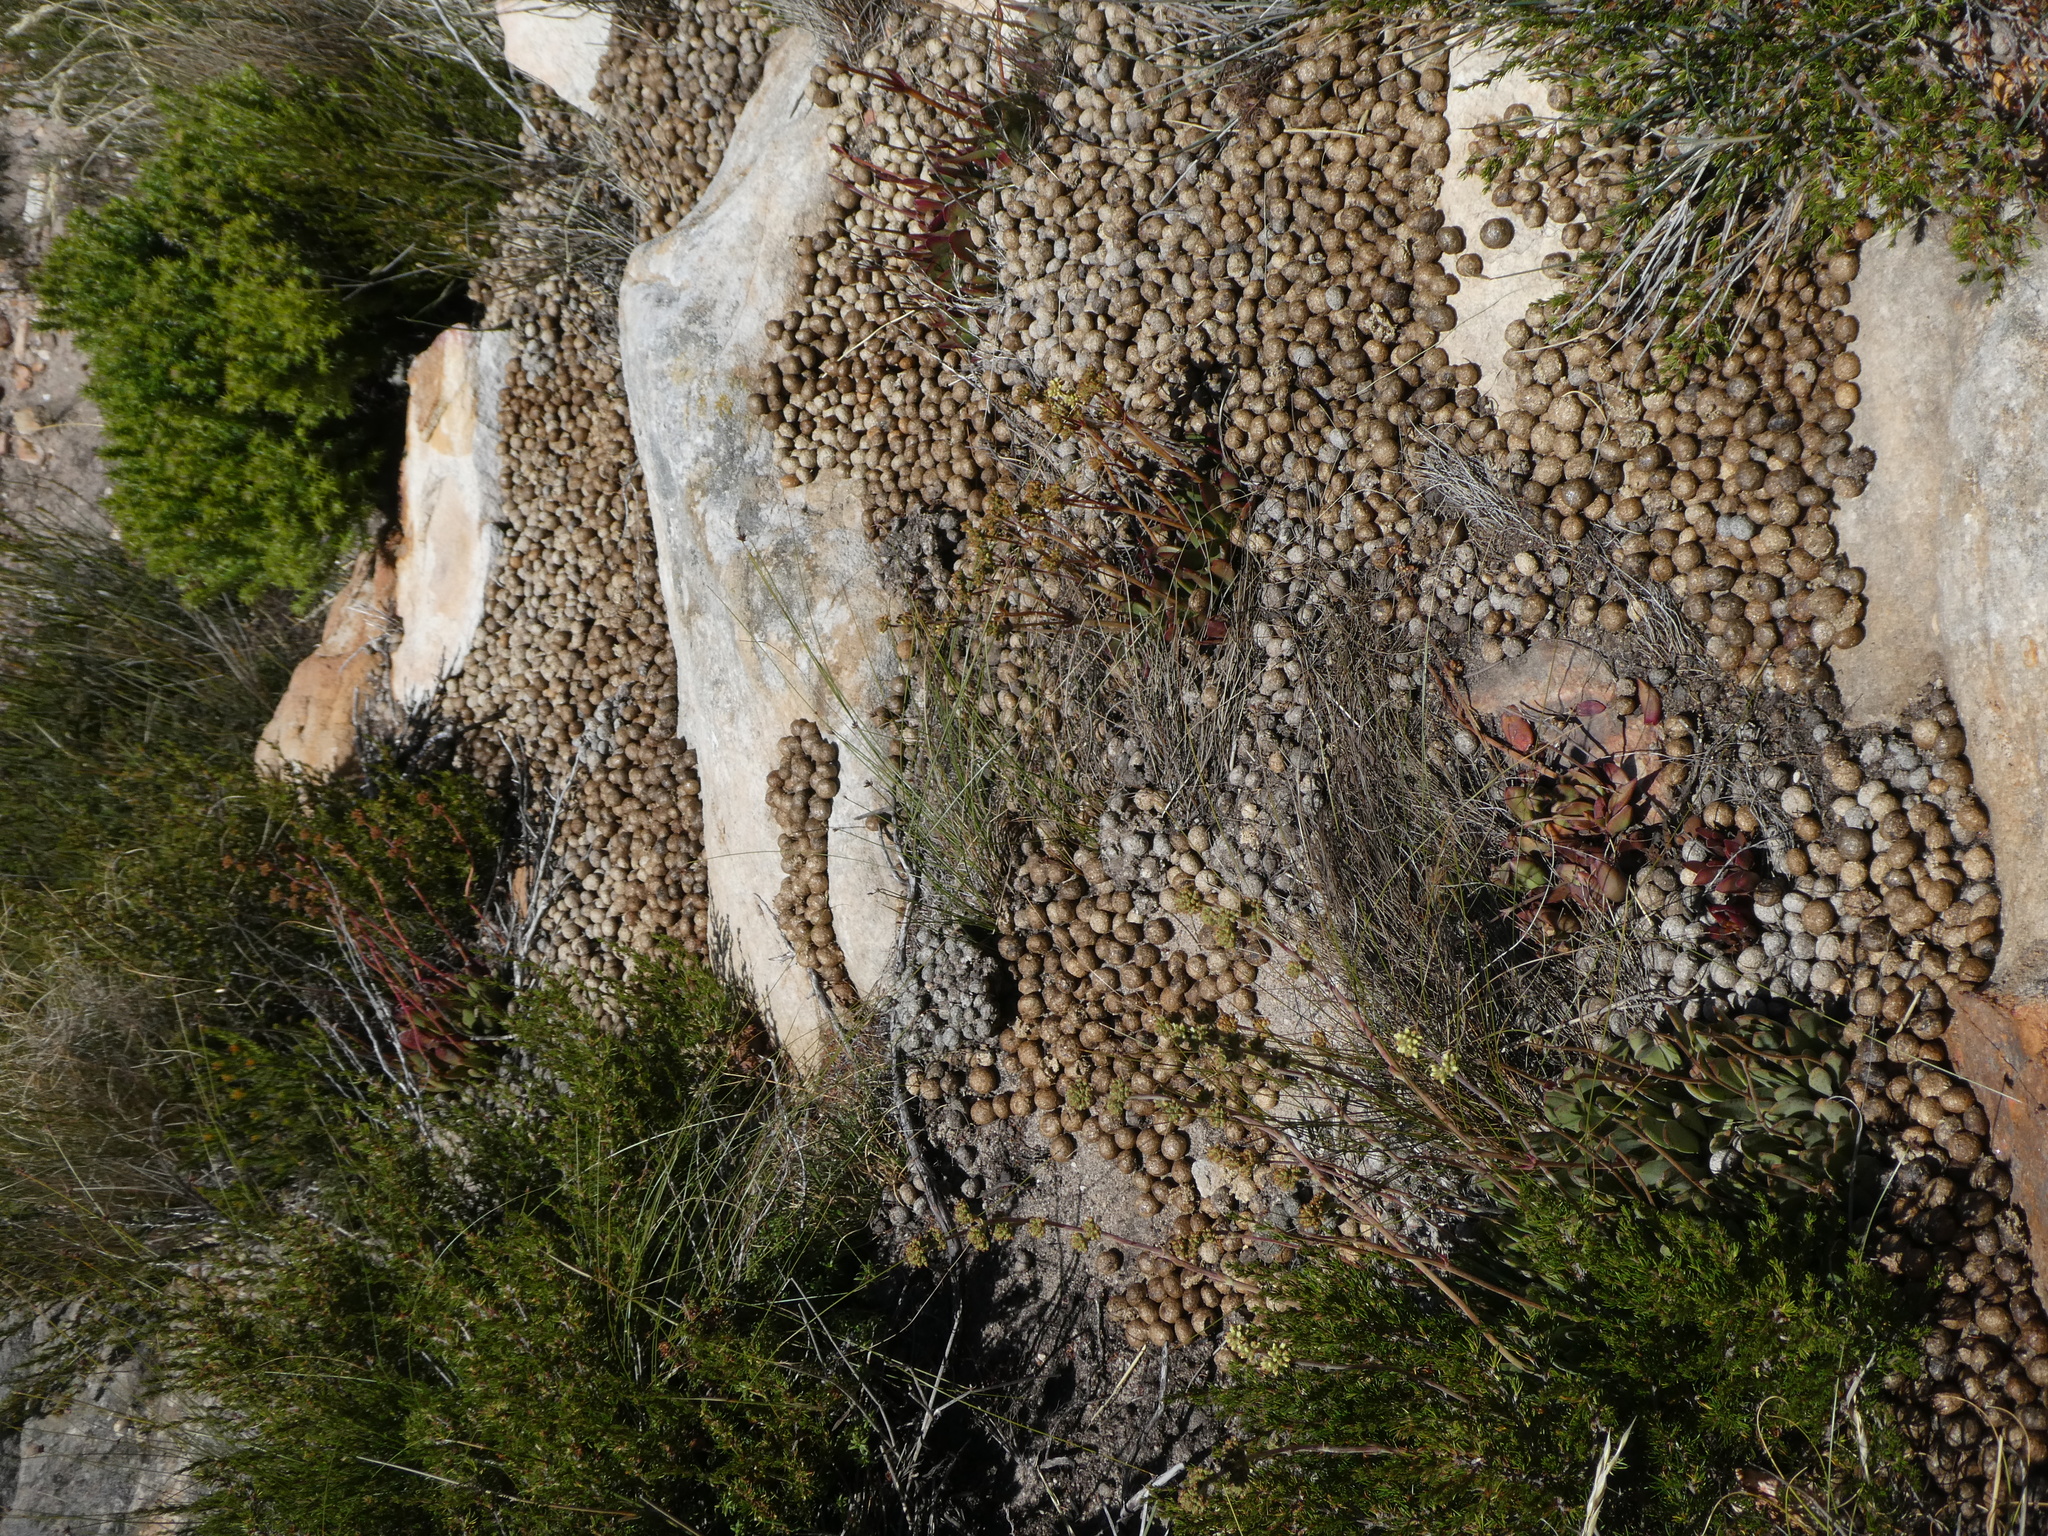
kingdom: Animalia
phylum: Chordata
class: Mammalia
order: Lagomorpha
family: Leporidae
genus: Pronolagus
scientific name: Pronolagus saundersiae
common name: Hewitt's red rock hare
